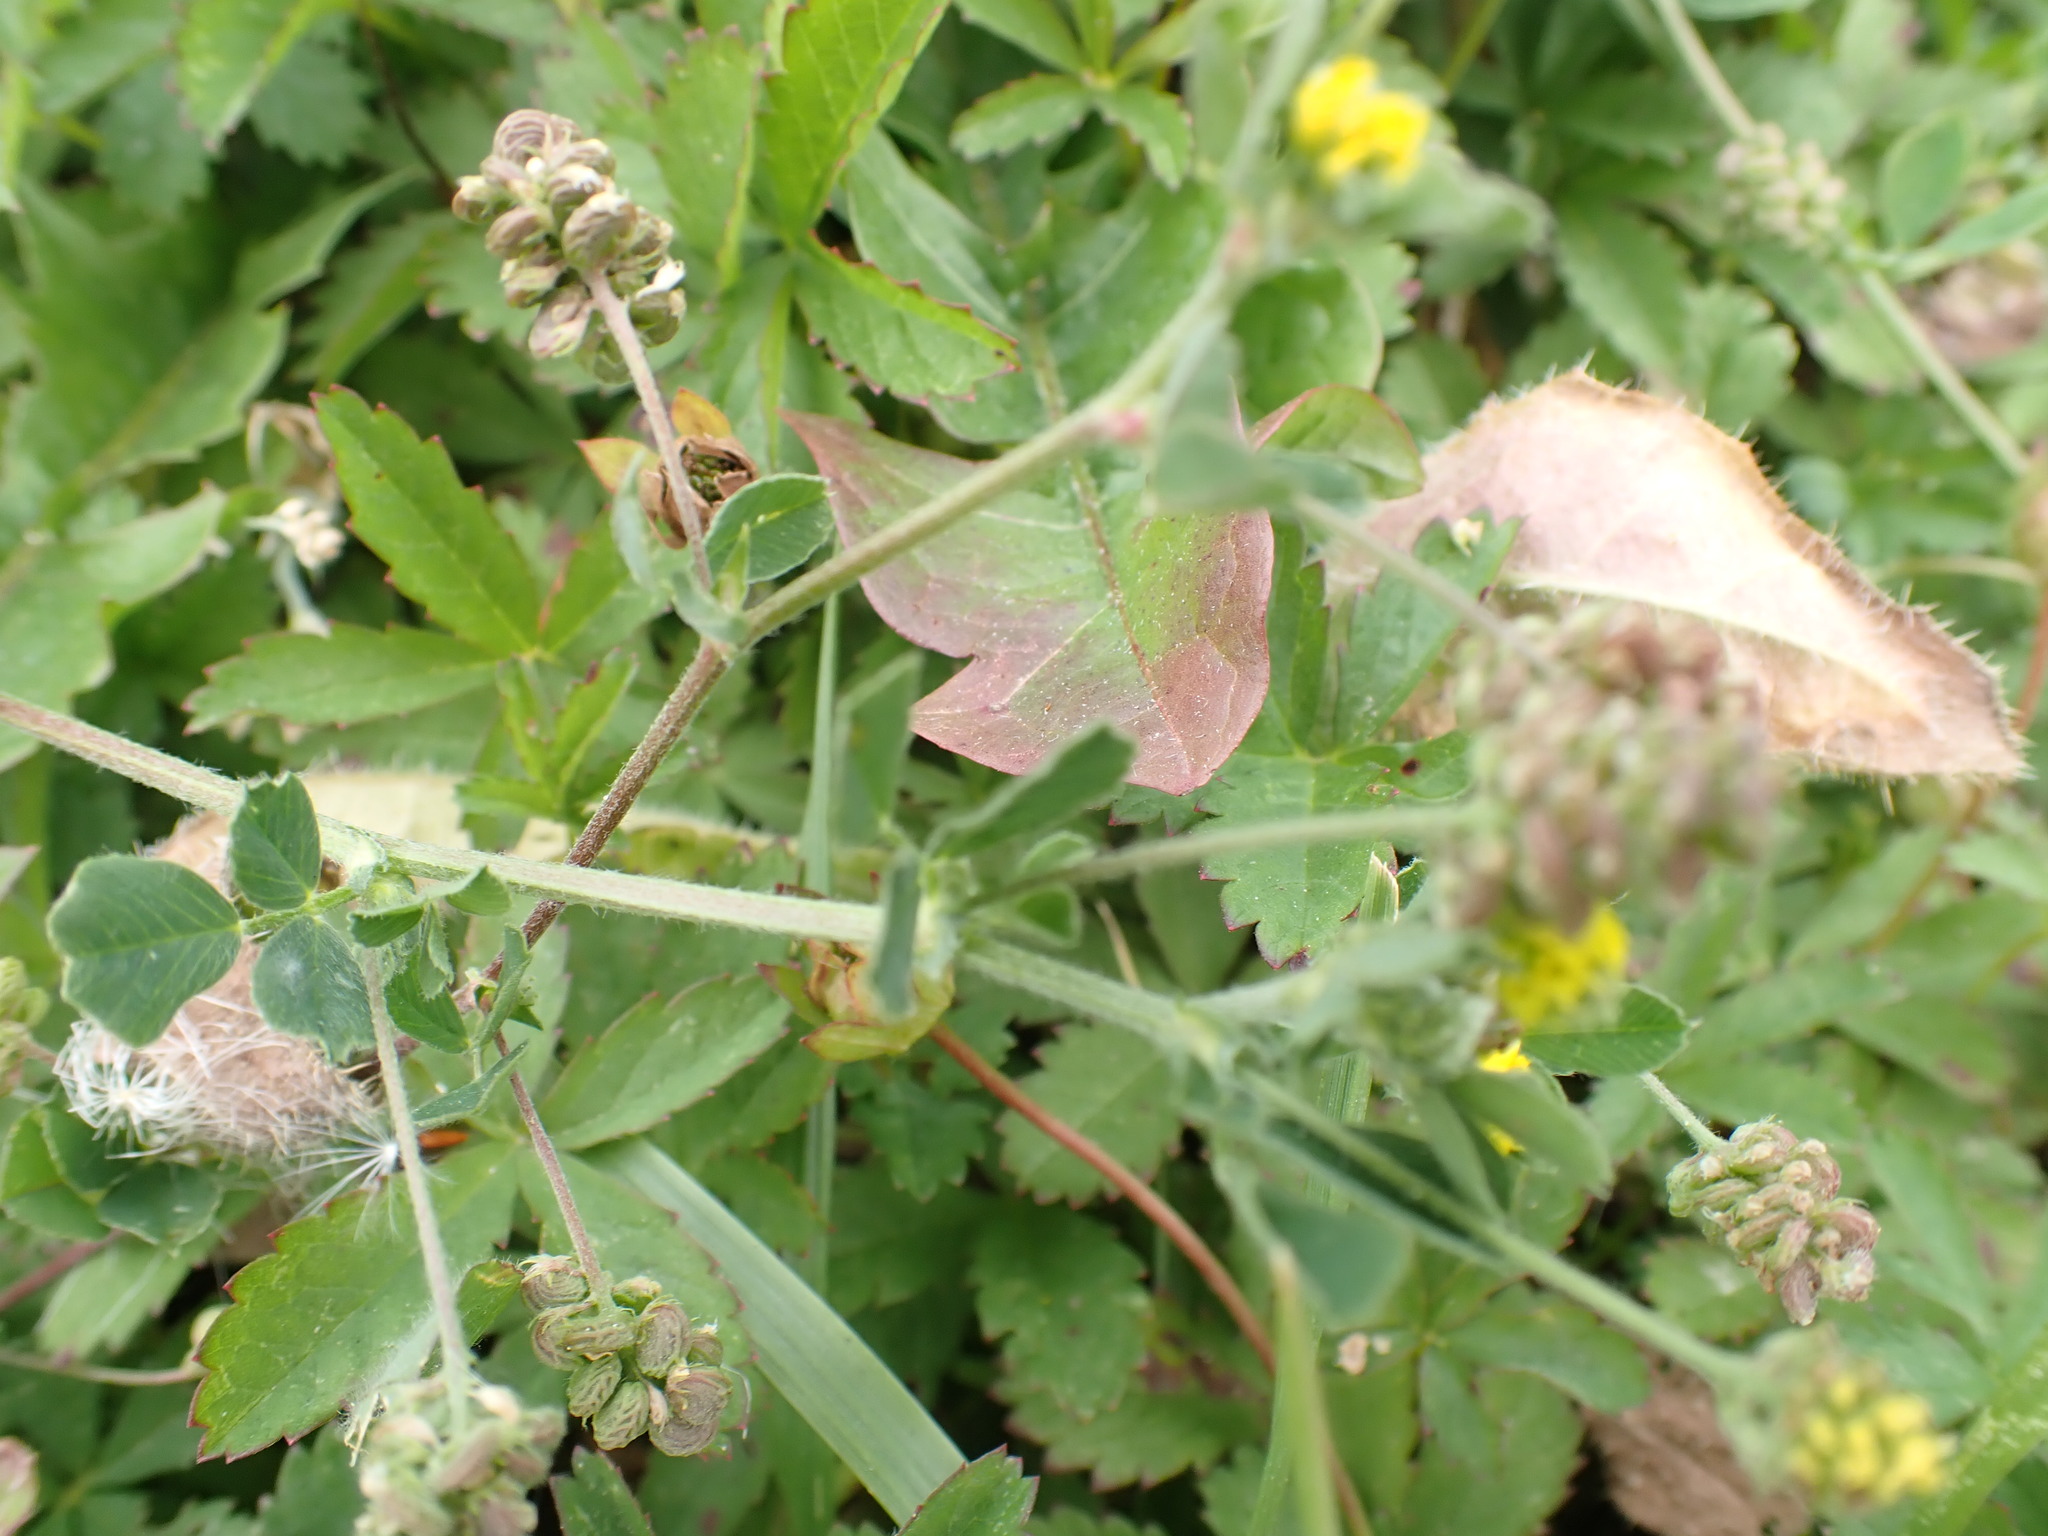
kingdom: Plantae
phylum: Tracheophyta
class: Magnoliopsida
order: Fabales
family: Fabaceae
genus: Medicago
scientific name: Medicago lupulina
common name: Black medick
